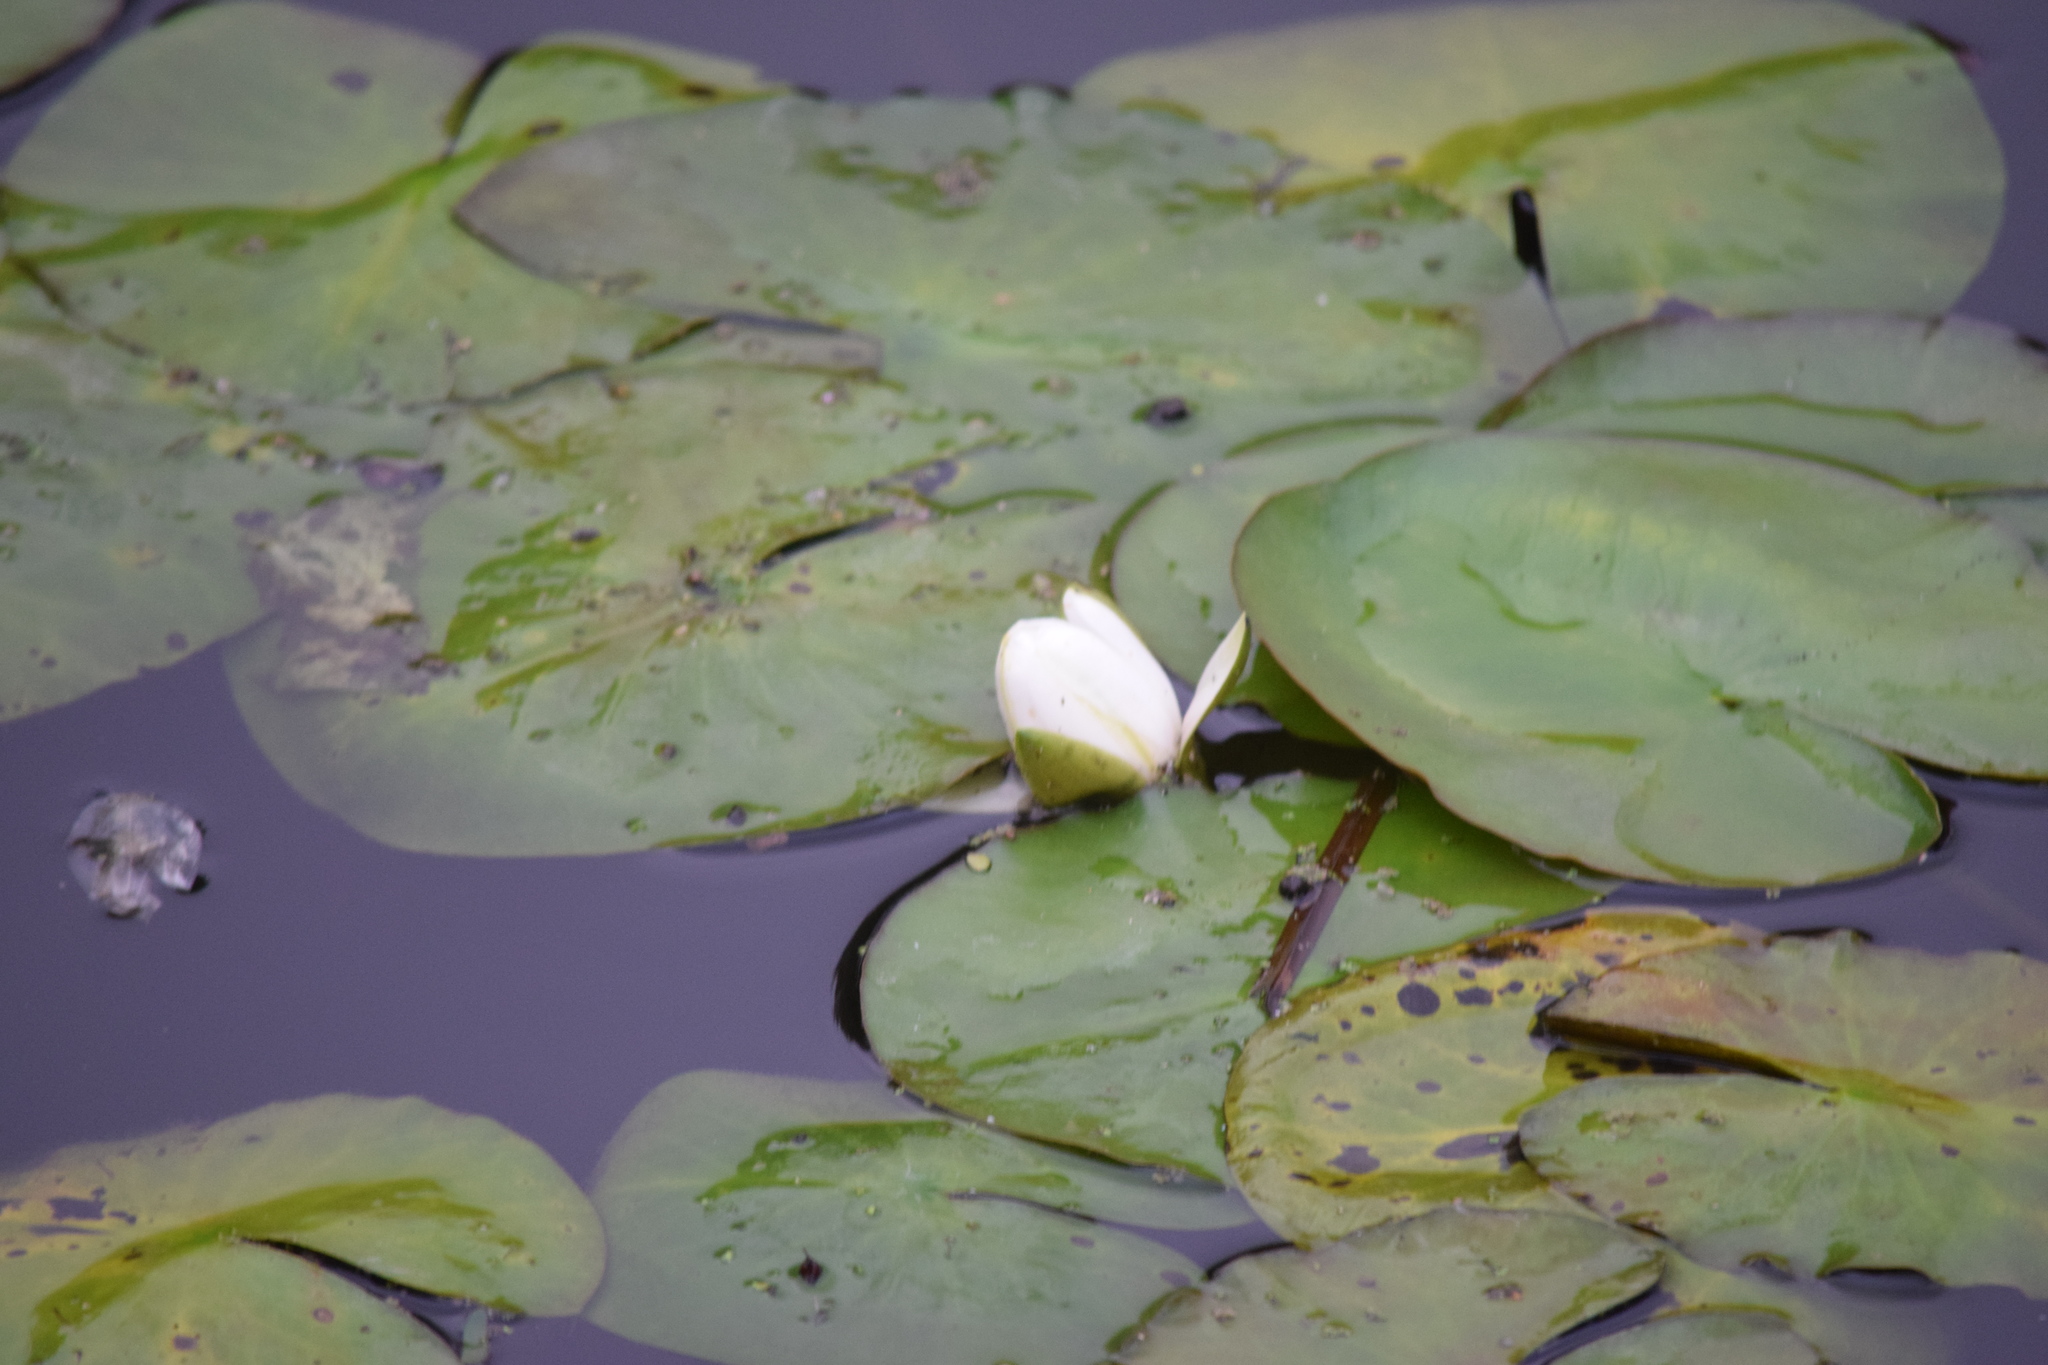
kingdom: Plantae
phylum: Tracheophyta
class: Magnoliopsida
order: Nymphaeales
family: Nymphaeaceae
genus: Nymphaea
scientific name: Nymphaea alba
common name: White water-lily
